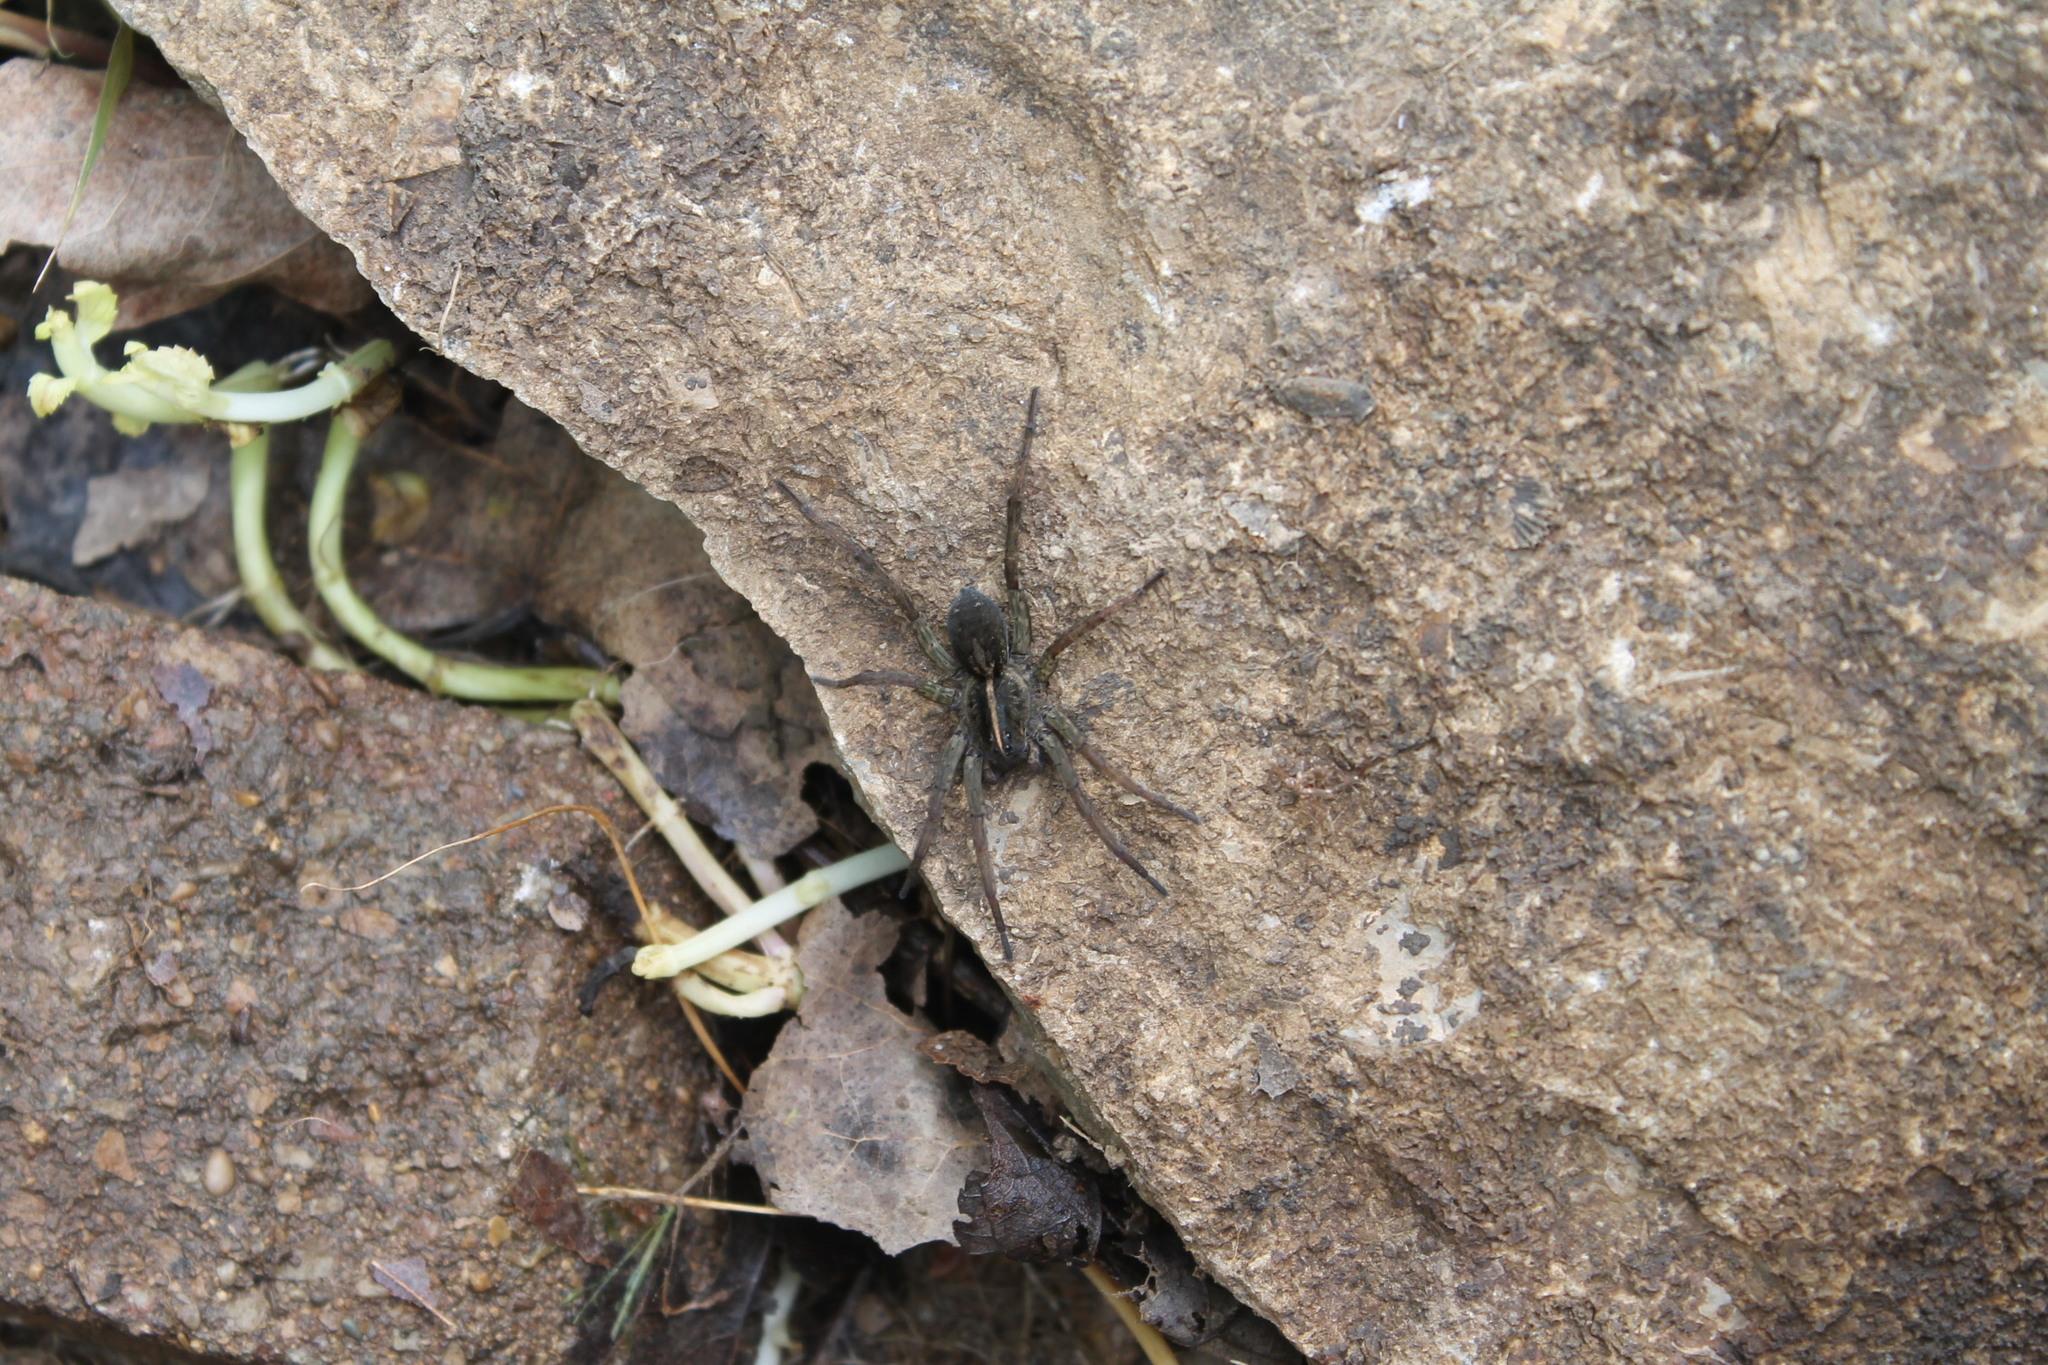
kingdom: Animalia
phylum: Arthropoda
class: Arachnida
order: Araneae
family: Lycosidae
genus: Tigrosa
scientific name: Tigrosa helluo
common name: Wetland giant wolf spider
